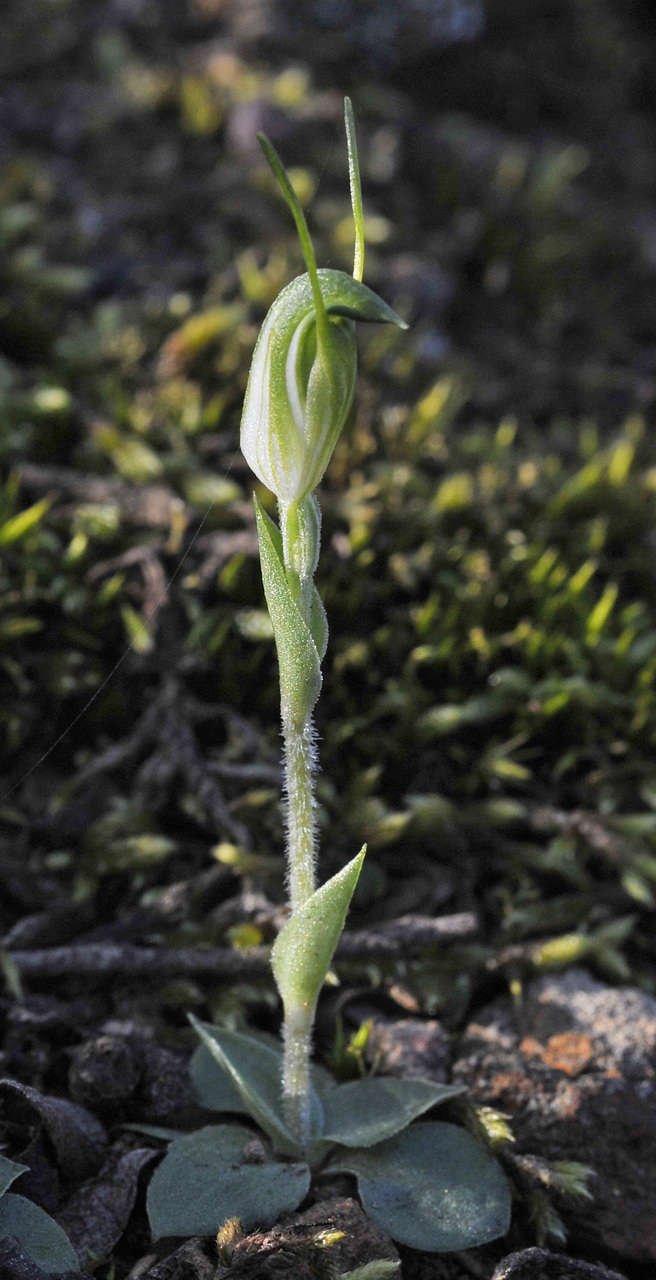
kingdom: Plantae
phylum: Tracheophyta
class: Liliopsida
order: Asparagales
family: Orchidaceae
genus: Pterostylis
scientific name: Pterostylis nana
